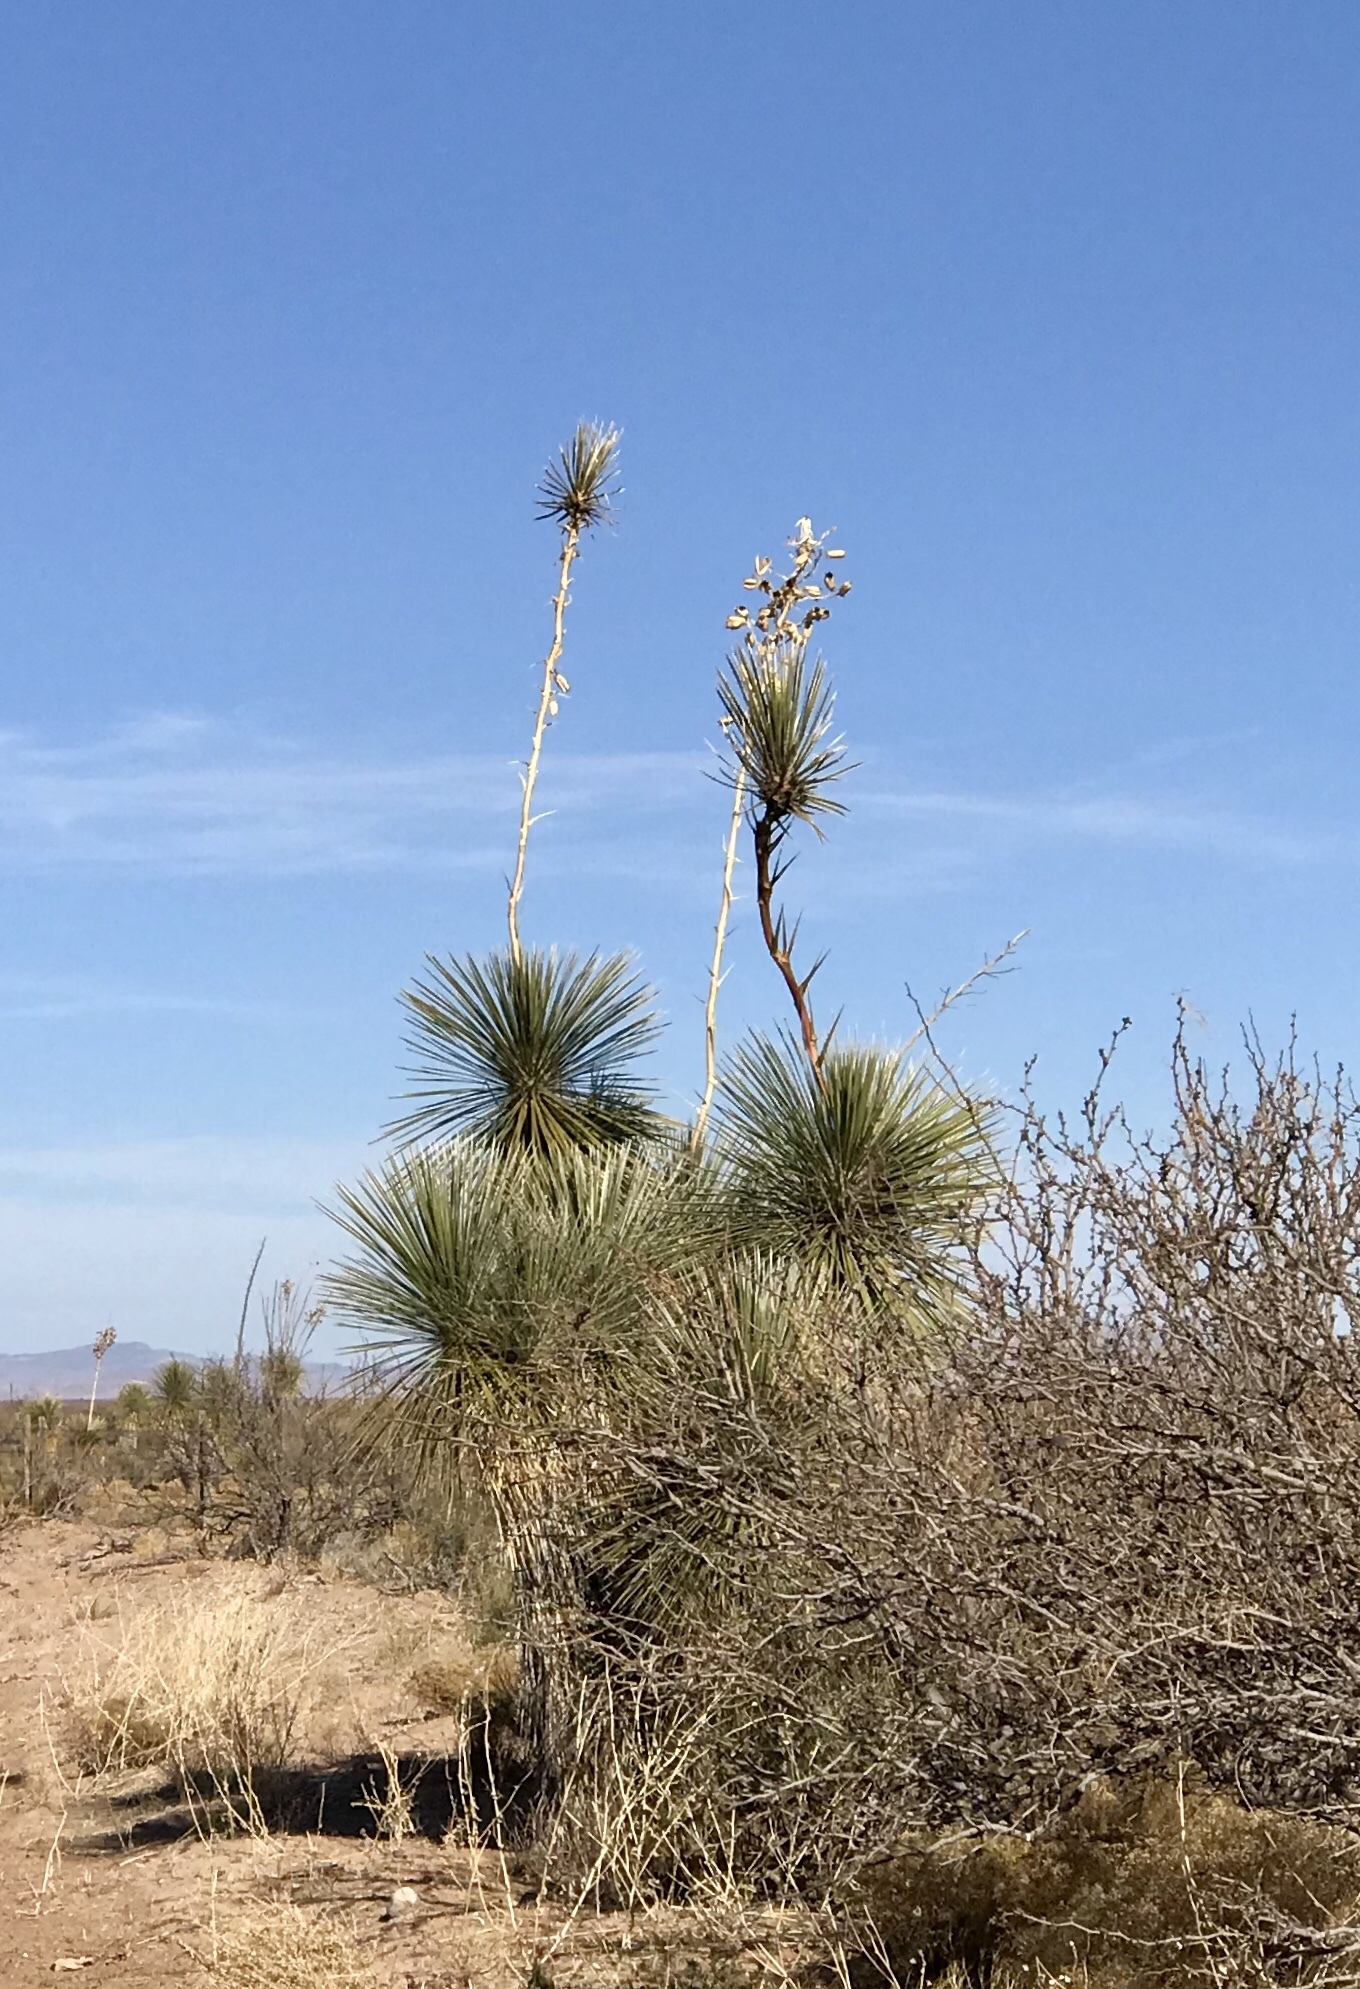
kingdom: Plantae
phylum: Tracheophyta
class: Liliopsida
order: Asparagales
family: Asparagaceae
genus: Yucca
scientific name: Yucca elata
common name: Palmella
